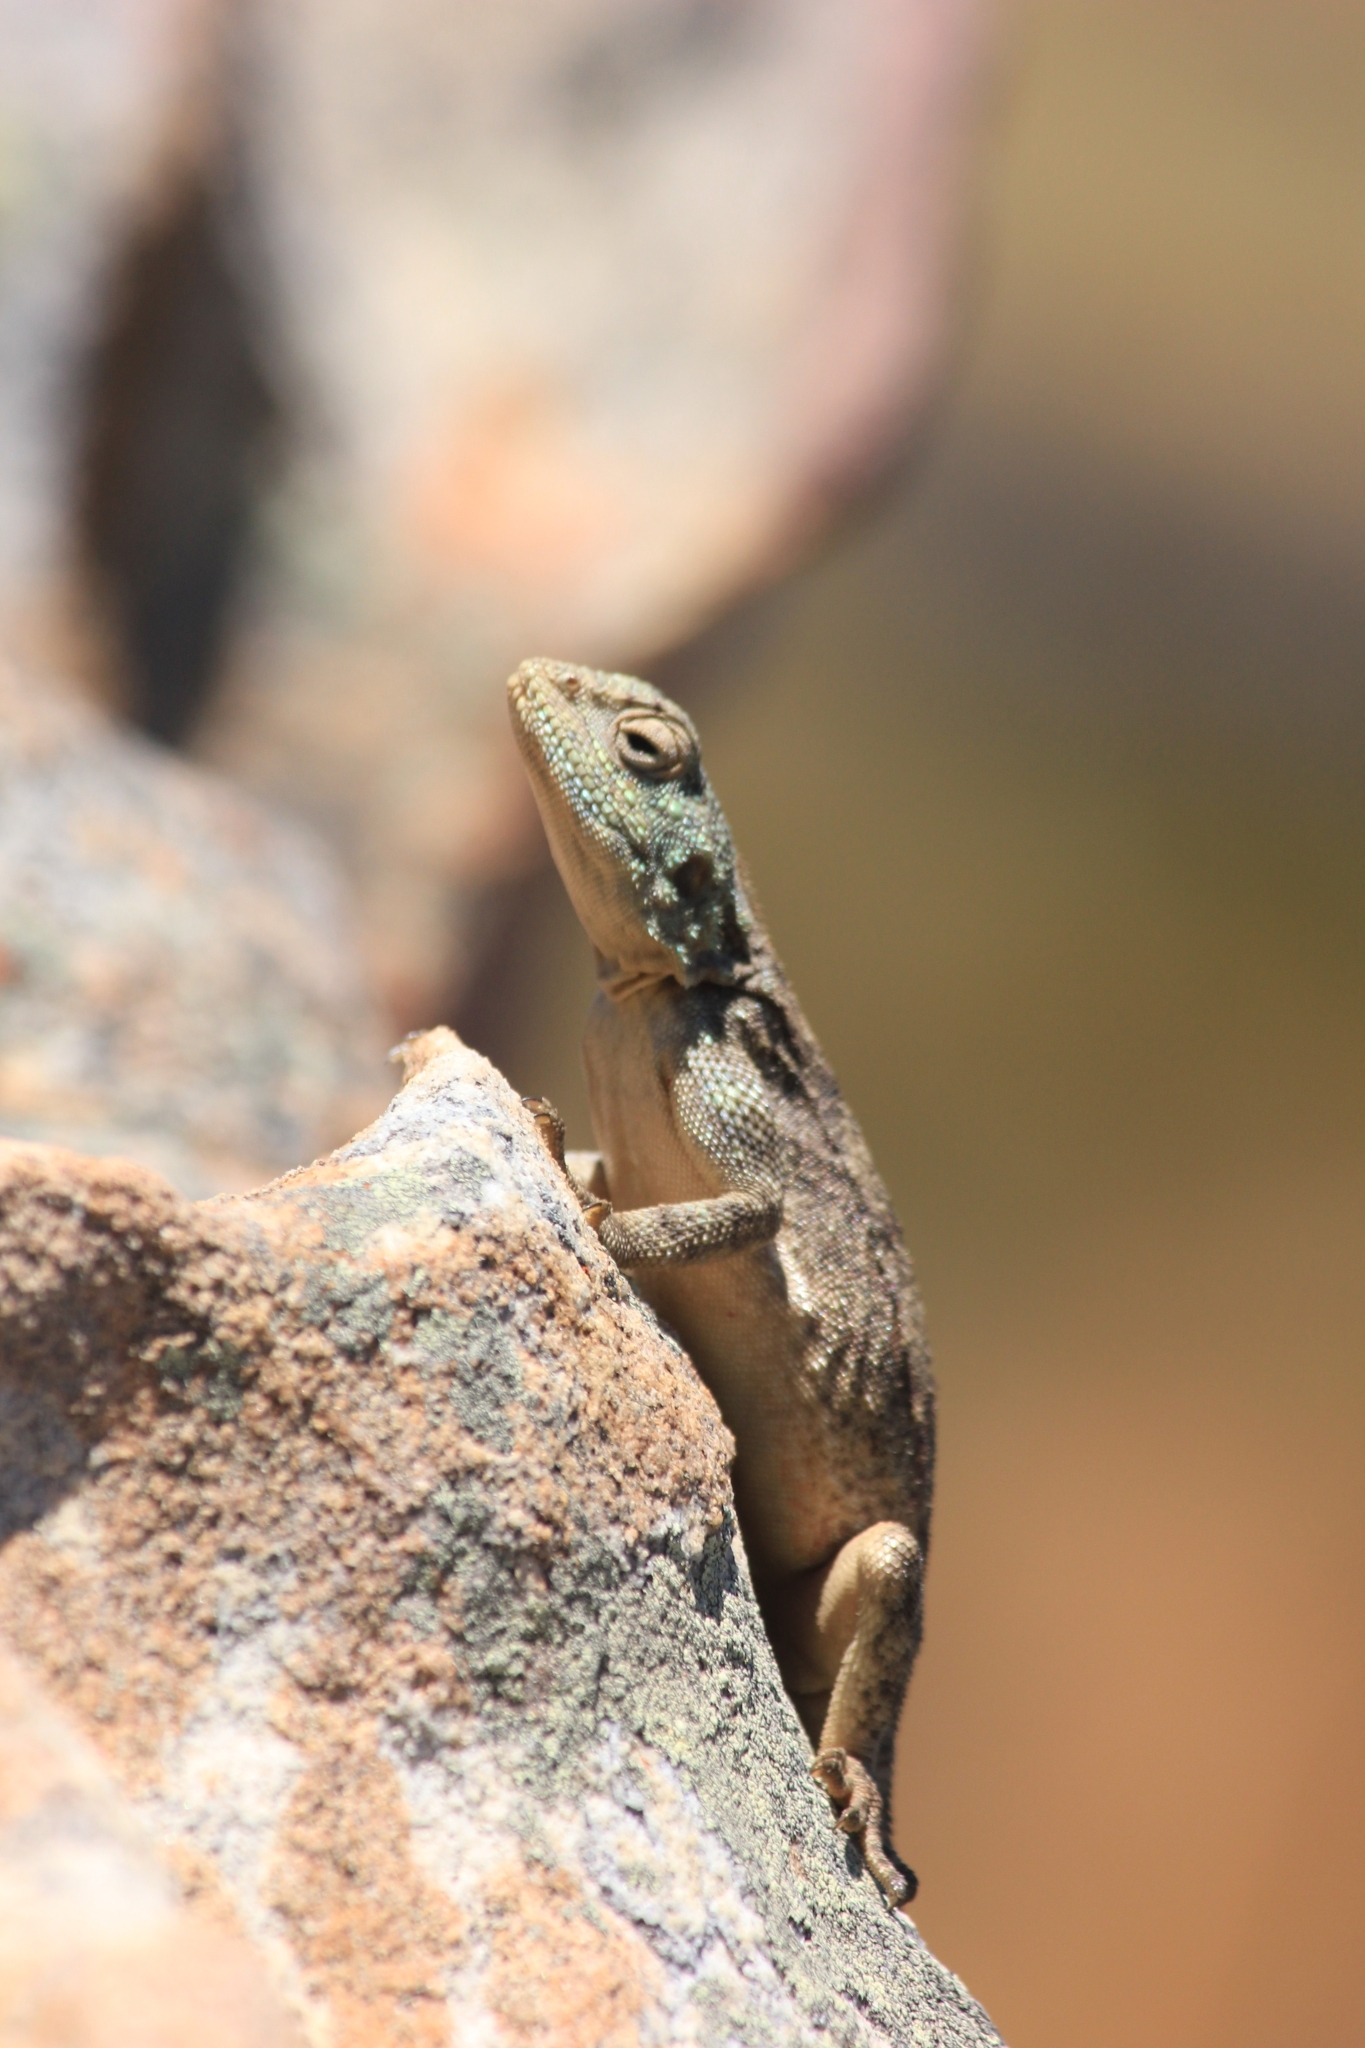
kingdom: Animalia
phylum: Chordata
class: Squamata
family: Agamidae
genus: Agama
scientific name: Agama atra
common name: Southern african rock agama
